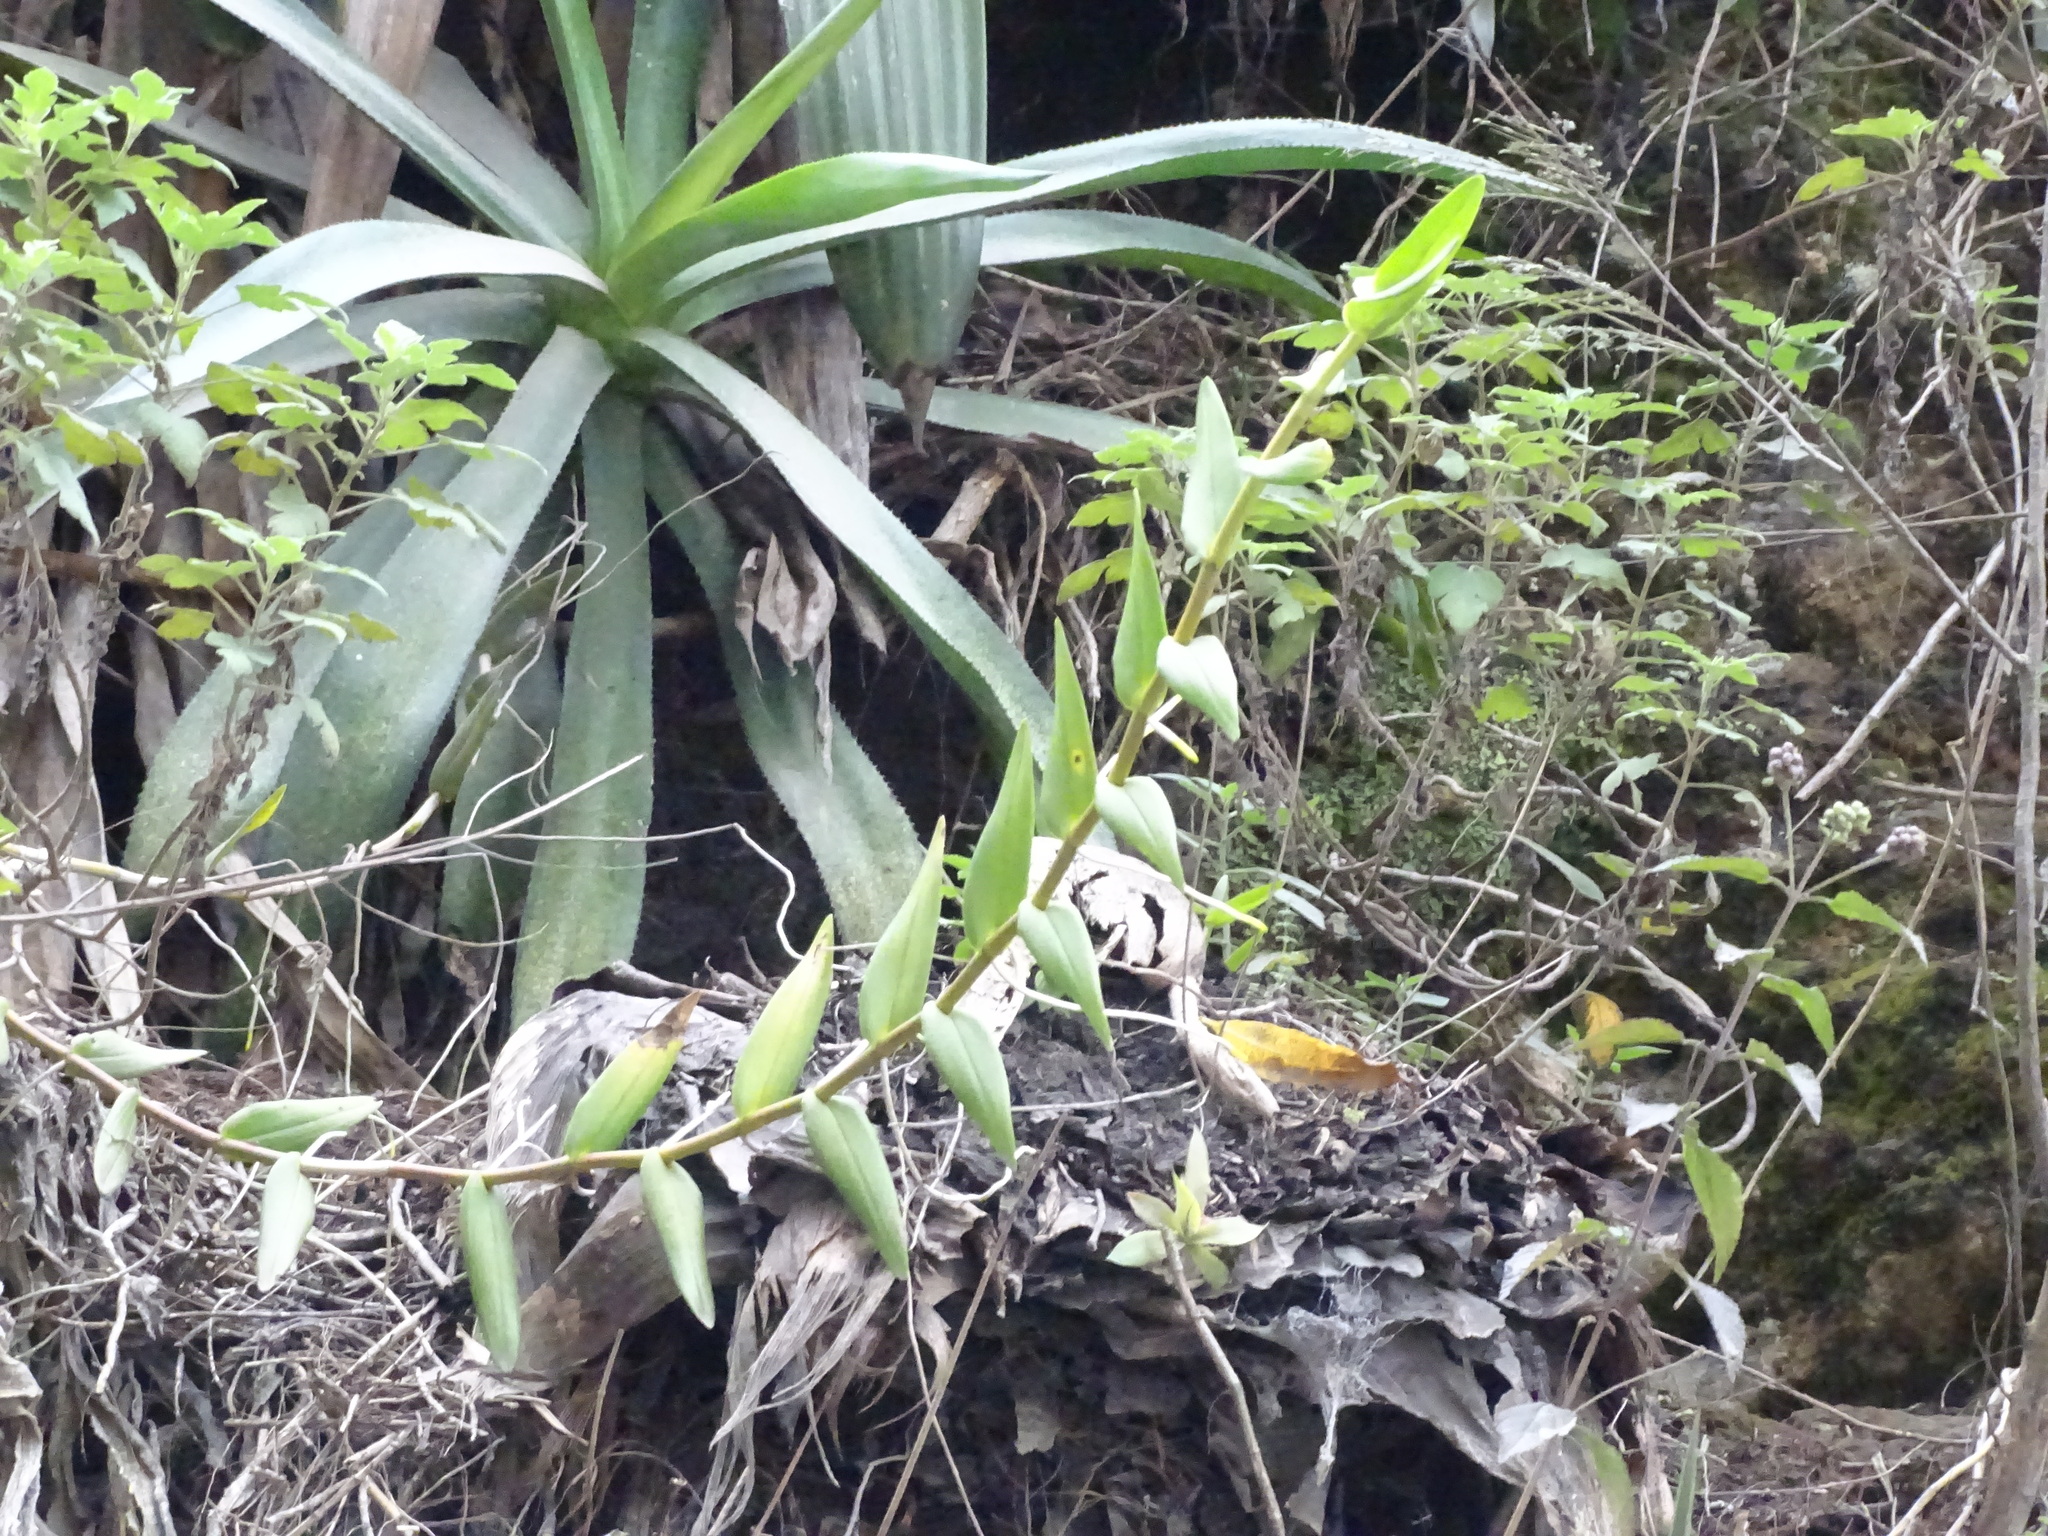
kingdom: Plantae
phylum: Tracheophyta
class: Liliopsida
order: Asparagales
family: Orchidaceae
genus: Epidendrum
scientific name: Epidendrum radicans
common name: Fire star orchid
